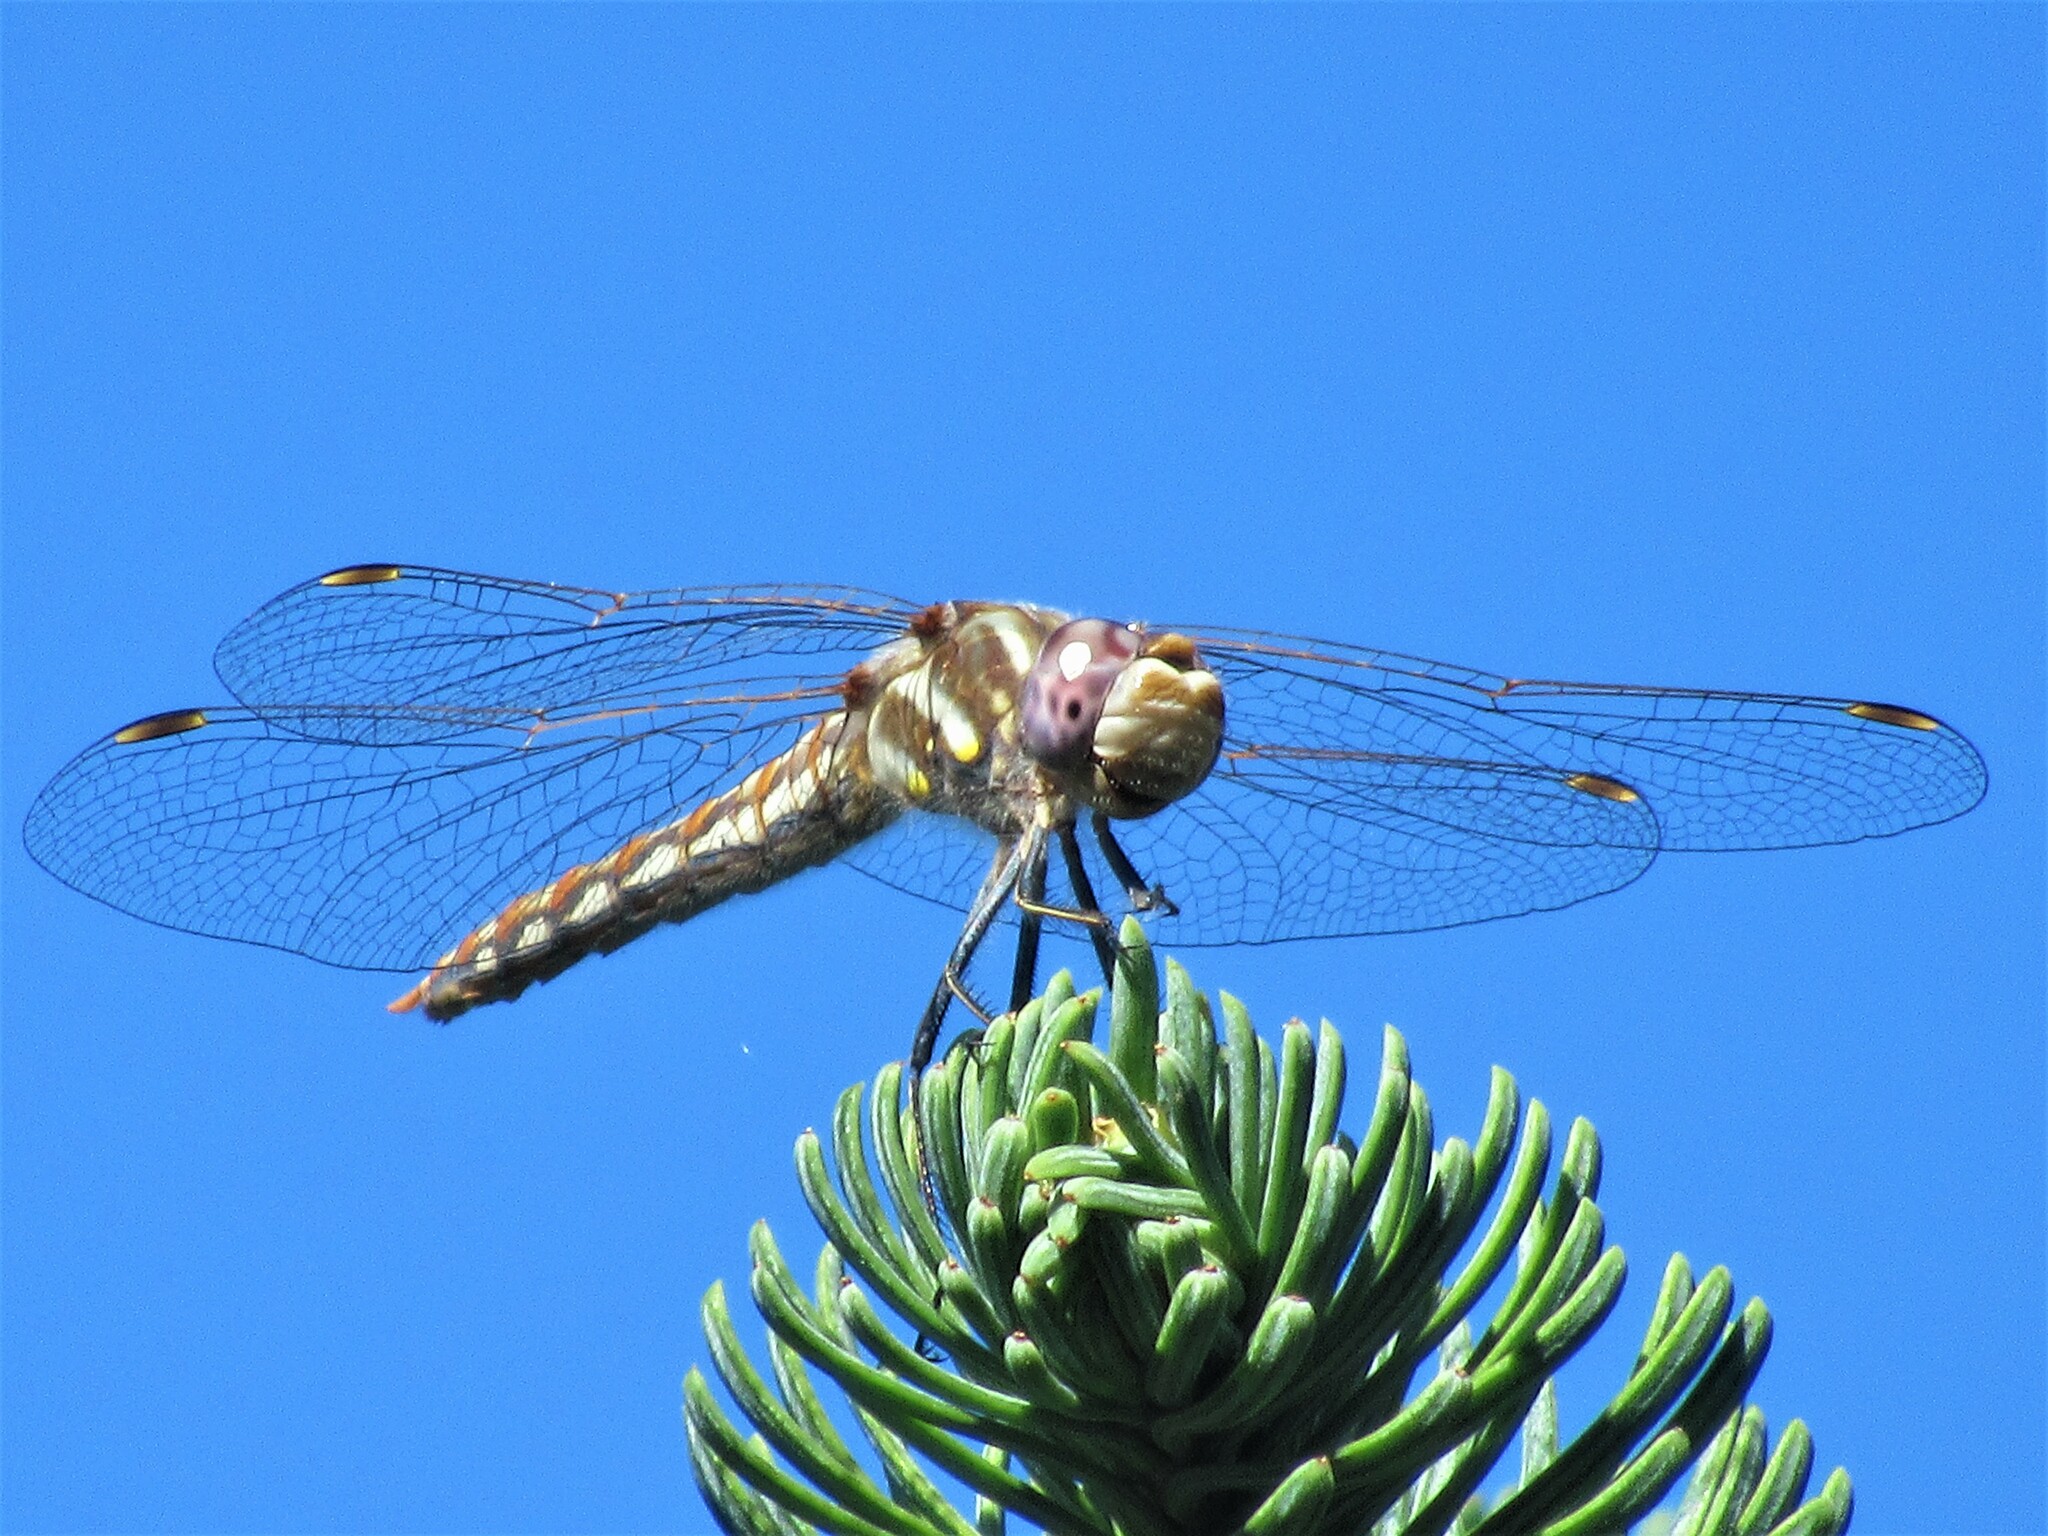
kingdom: Animalia
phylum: Arthropoda
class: Insecta
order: Odonata
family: Libellulidae
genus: Sympetrum
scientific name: Sympetrum corruptum
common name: Variegated meadowhawk
